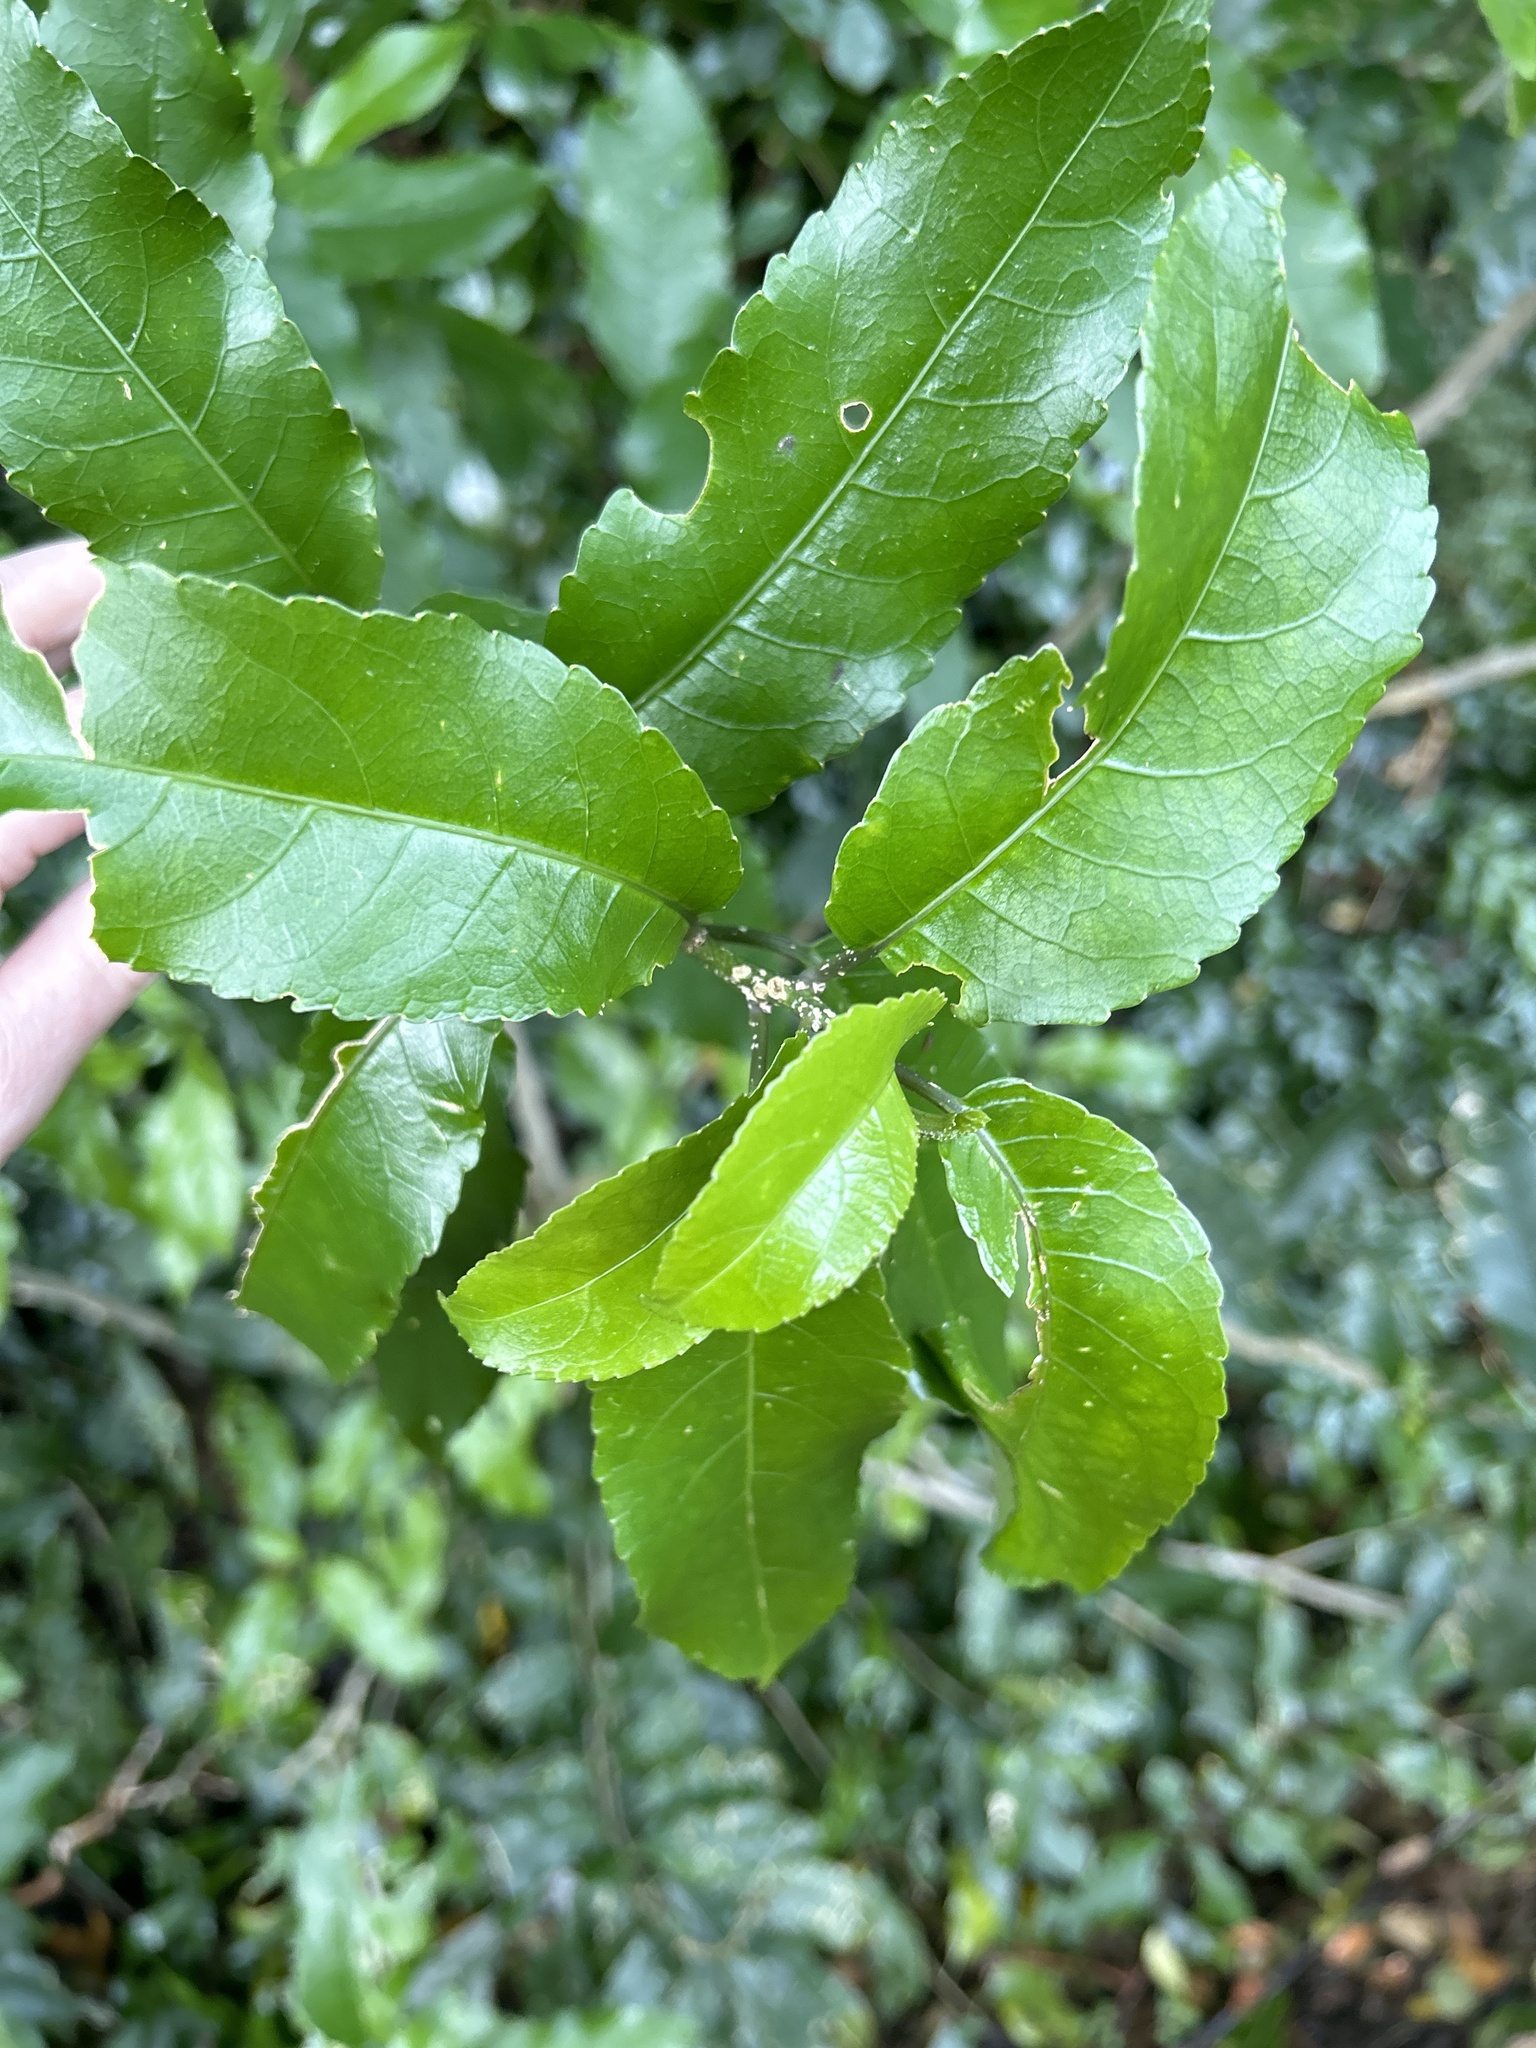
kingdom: Plantae
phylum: Tracheophyta
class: Magnoliopsida
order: Malpighiales
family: Violaceae
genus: Melicytus
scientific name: Melicytus ramiflorus
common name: Mahoe
